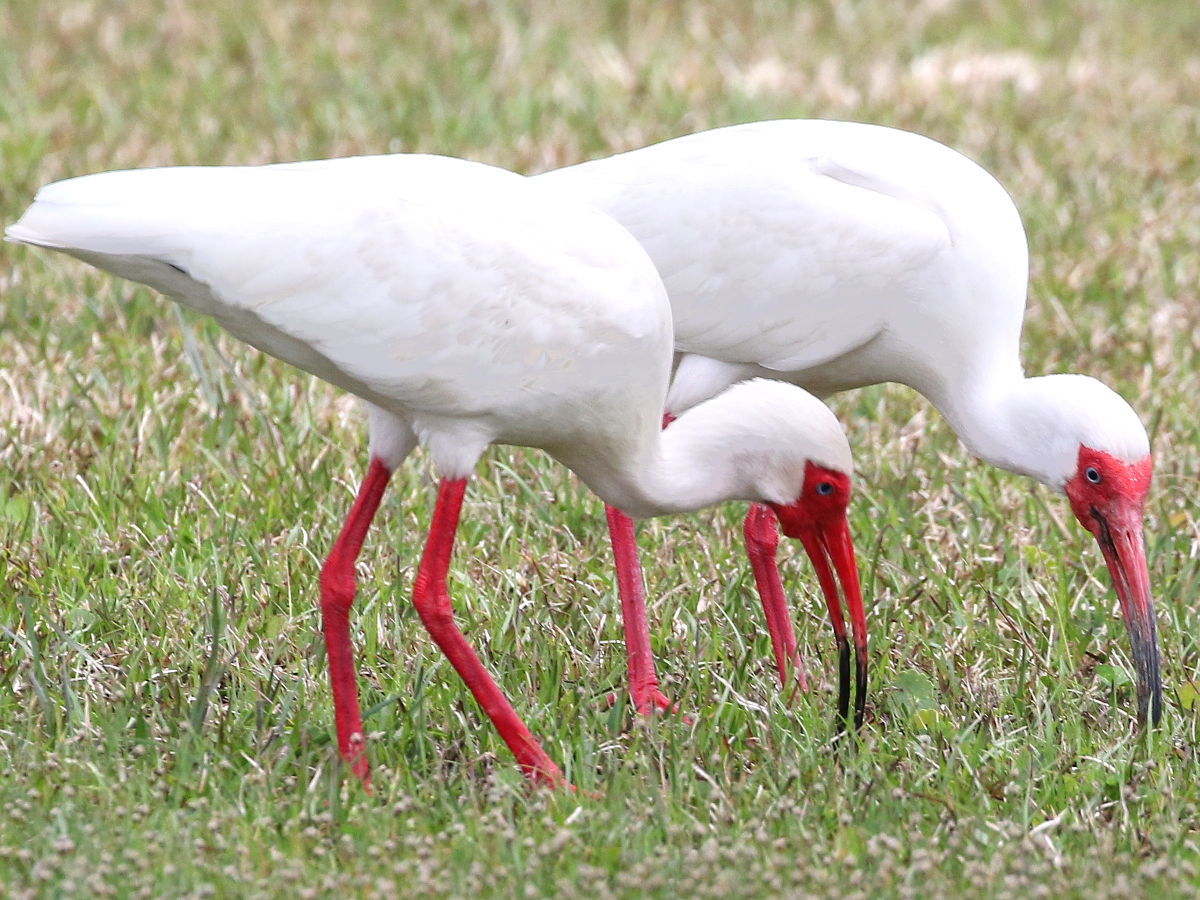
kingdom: Animalia
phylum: Chordata
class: Aves
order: Pelecaniformes
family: Threskiornithidae
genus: Eudocimus
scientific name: Eudocimus albus
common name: White ibis
